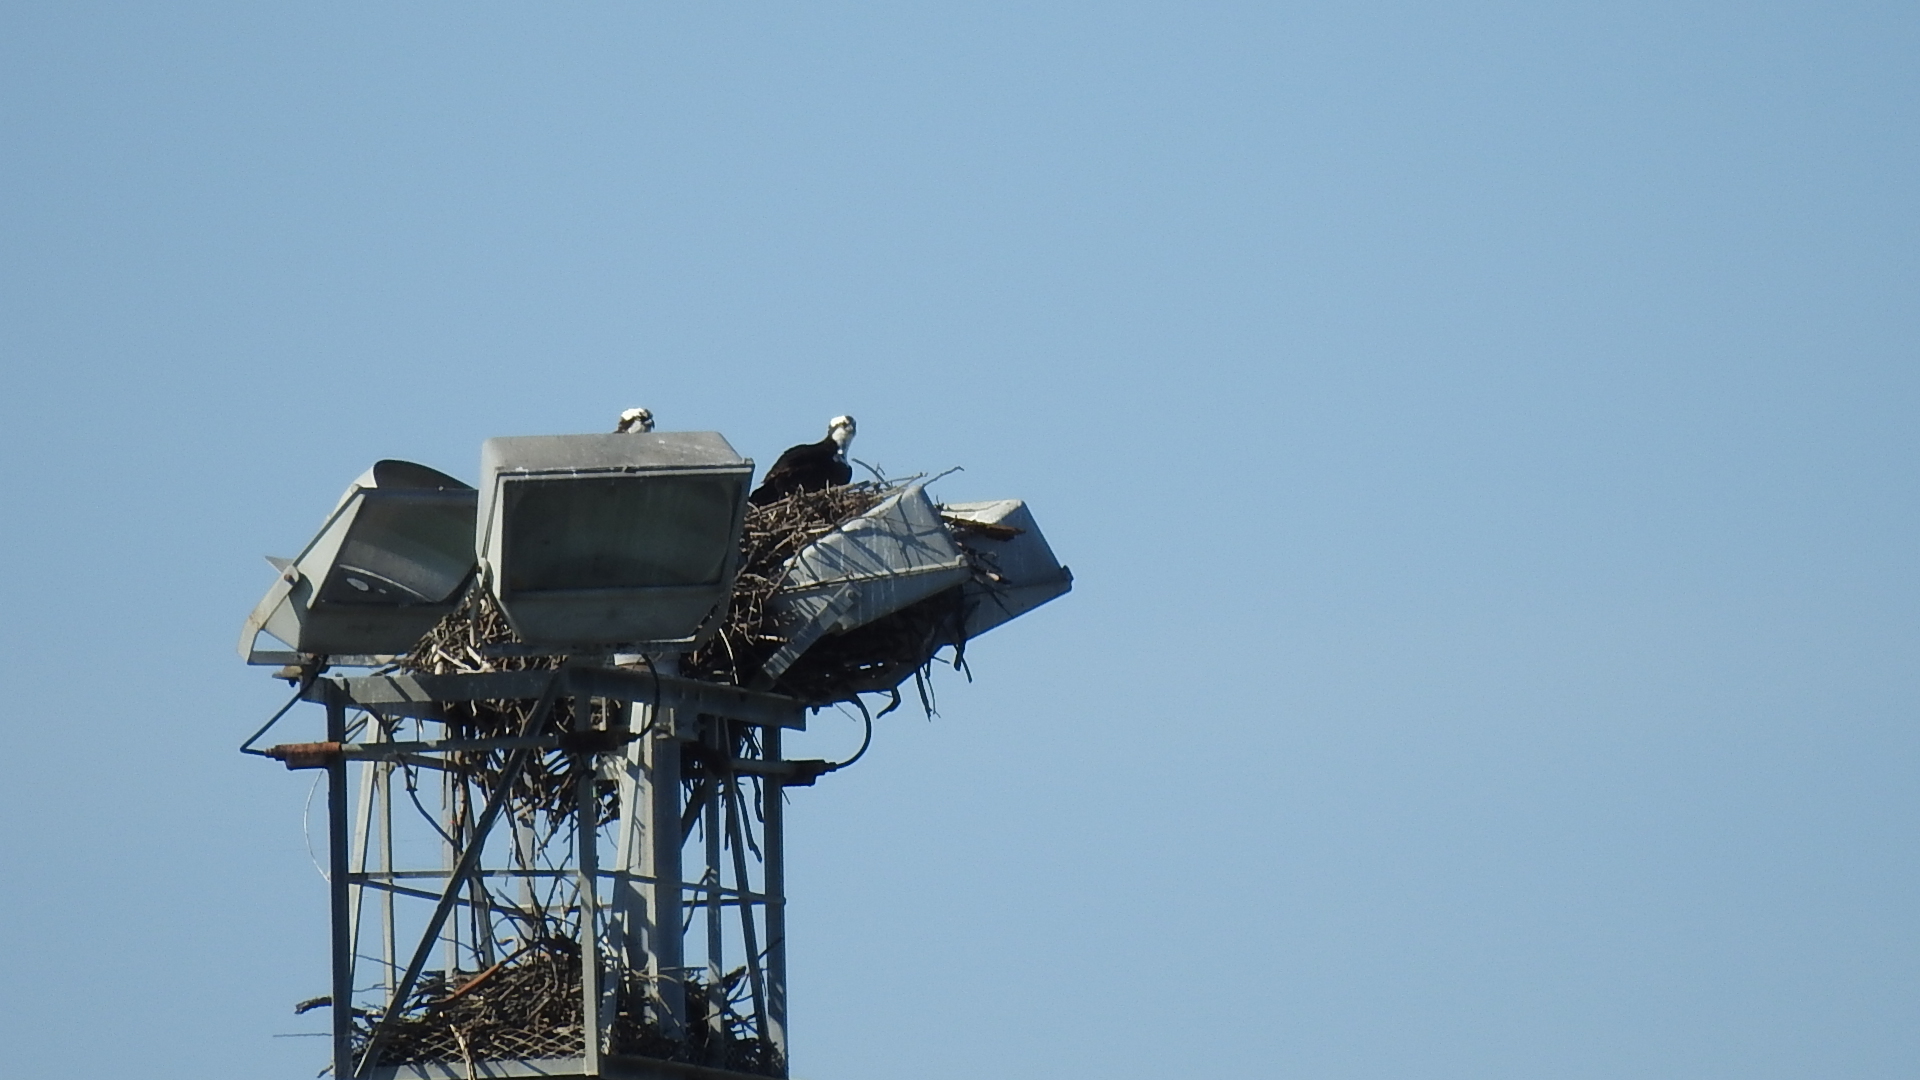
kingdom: Animalia
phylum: Chordata
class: Aves
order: Accipitriformes
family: Pandionidae
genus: Pandion
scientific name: Pandion haliaetus
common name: Osprey
